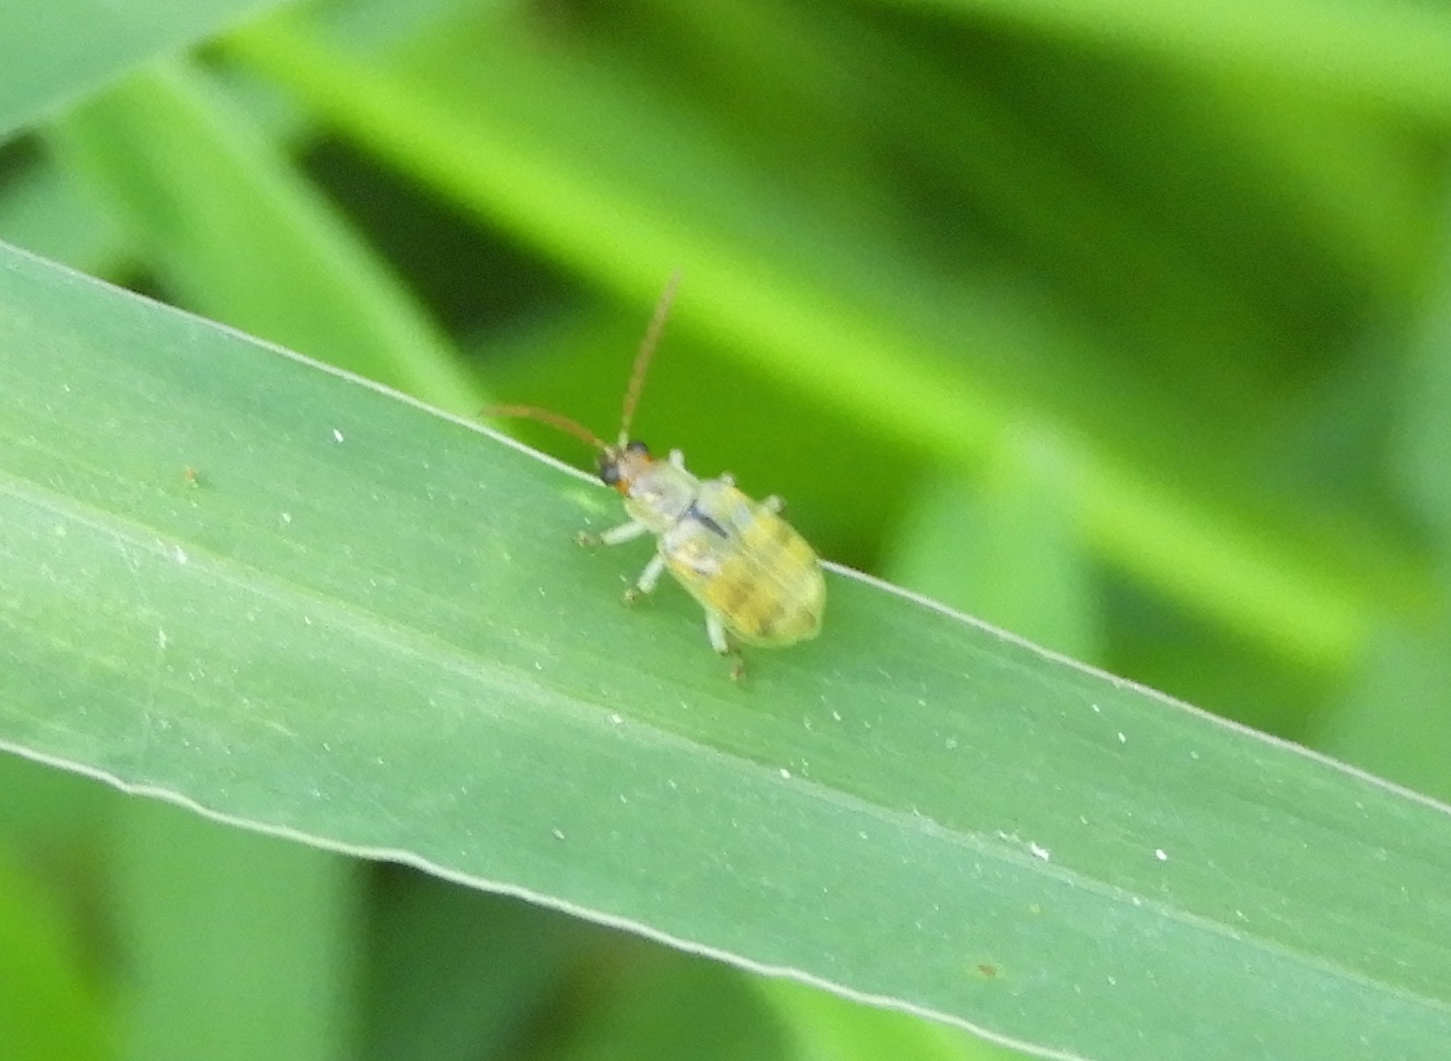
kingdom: Animalia
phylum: Arthropoda
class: Insecta
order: Coleoptera
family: Chrysomelidae
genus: Diabrotica
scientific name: Diabrotica balteata
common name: Leaf beetle
